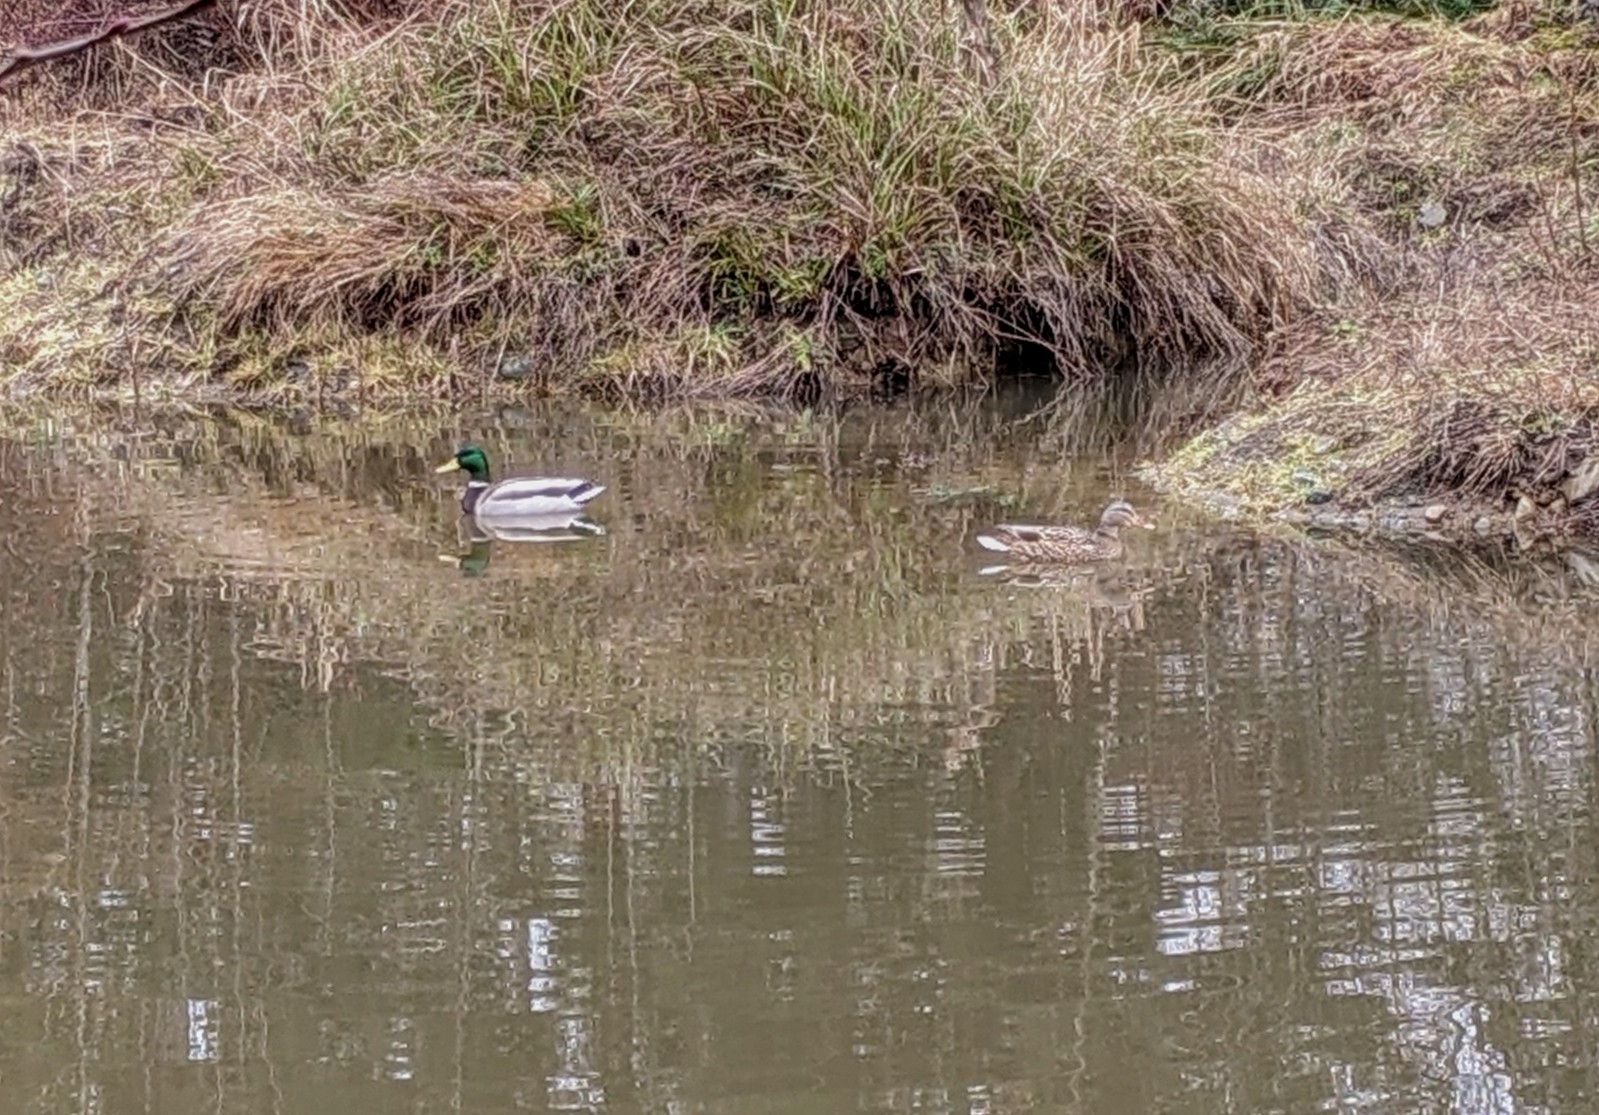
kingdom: Animalia
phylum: Chordata
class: Aves
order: Anseriformes
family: Anatidae
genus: Anas
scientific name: Anas platyrhynchos
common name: Mallard
